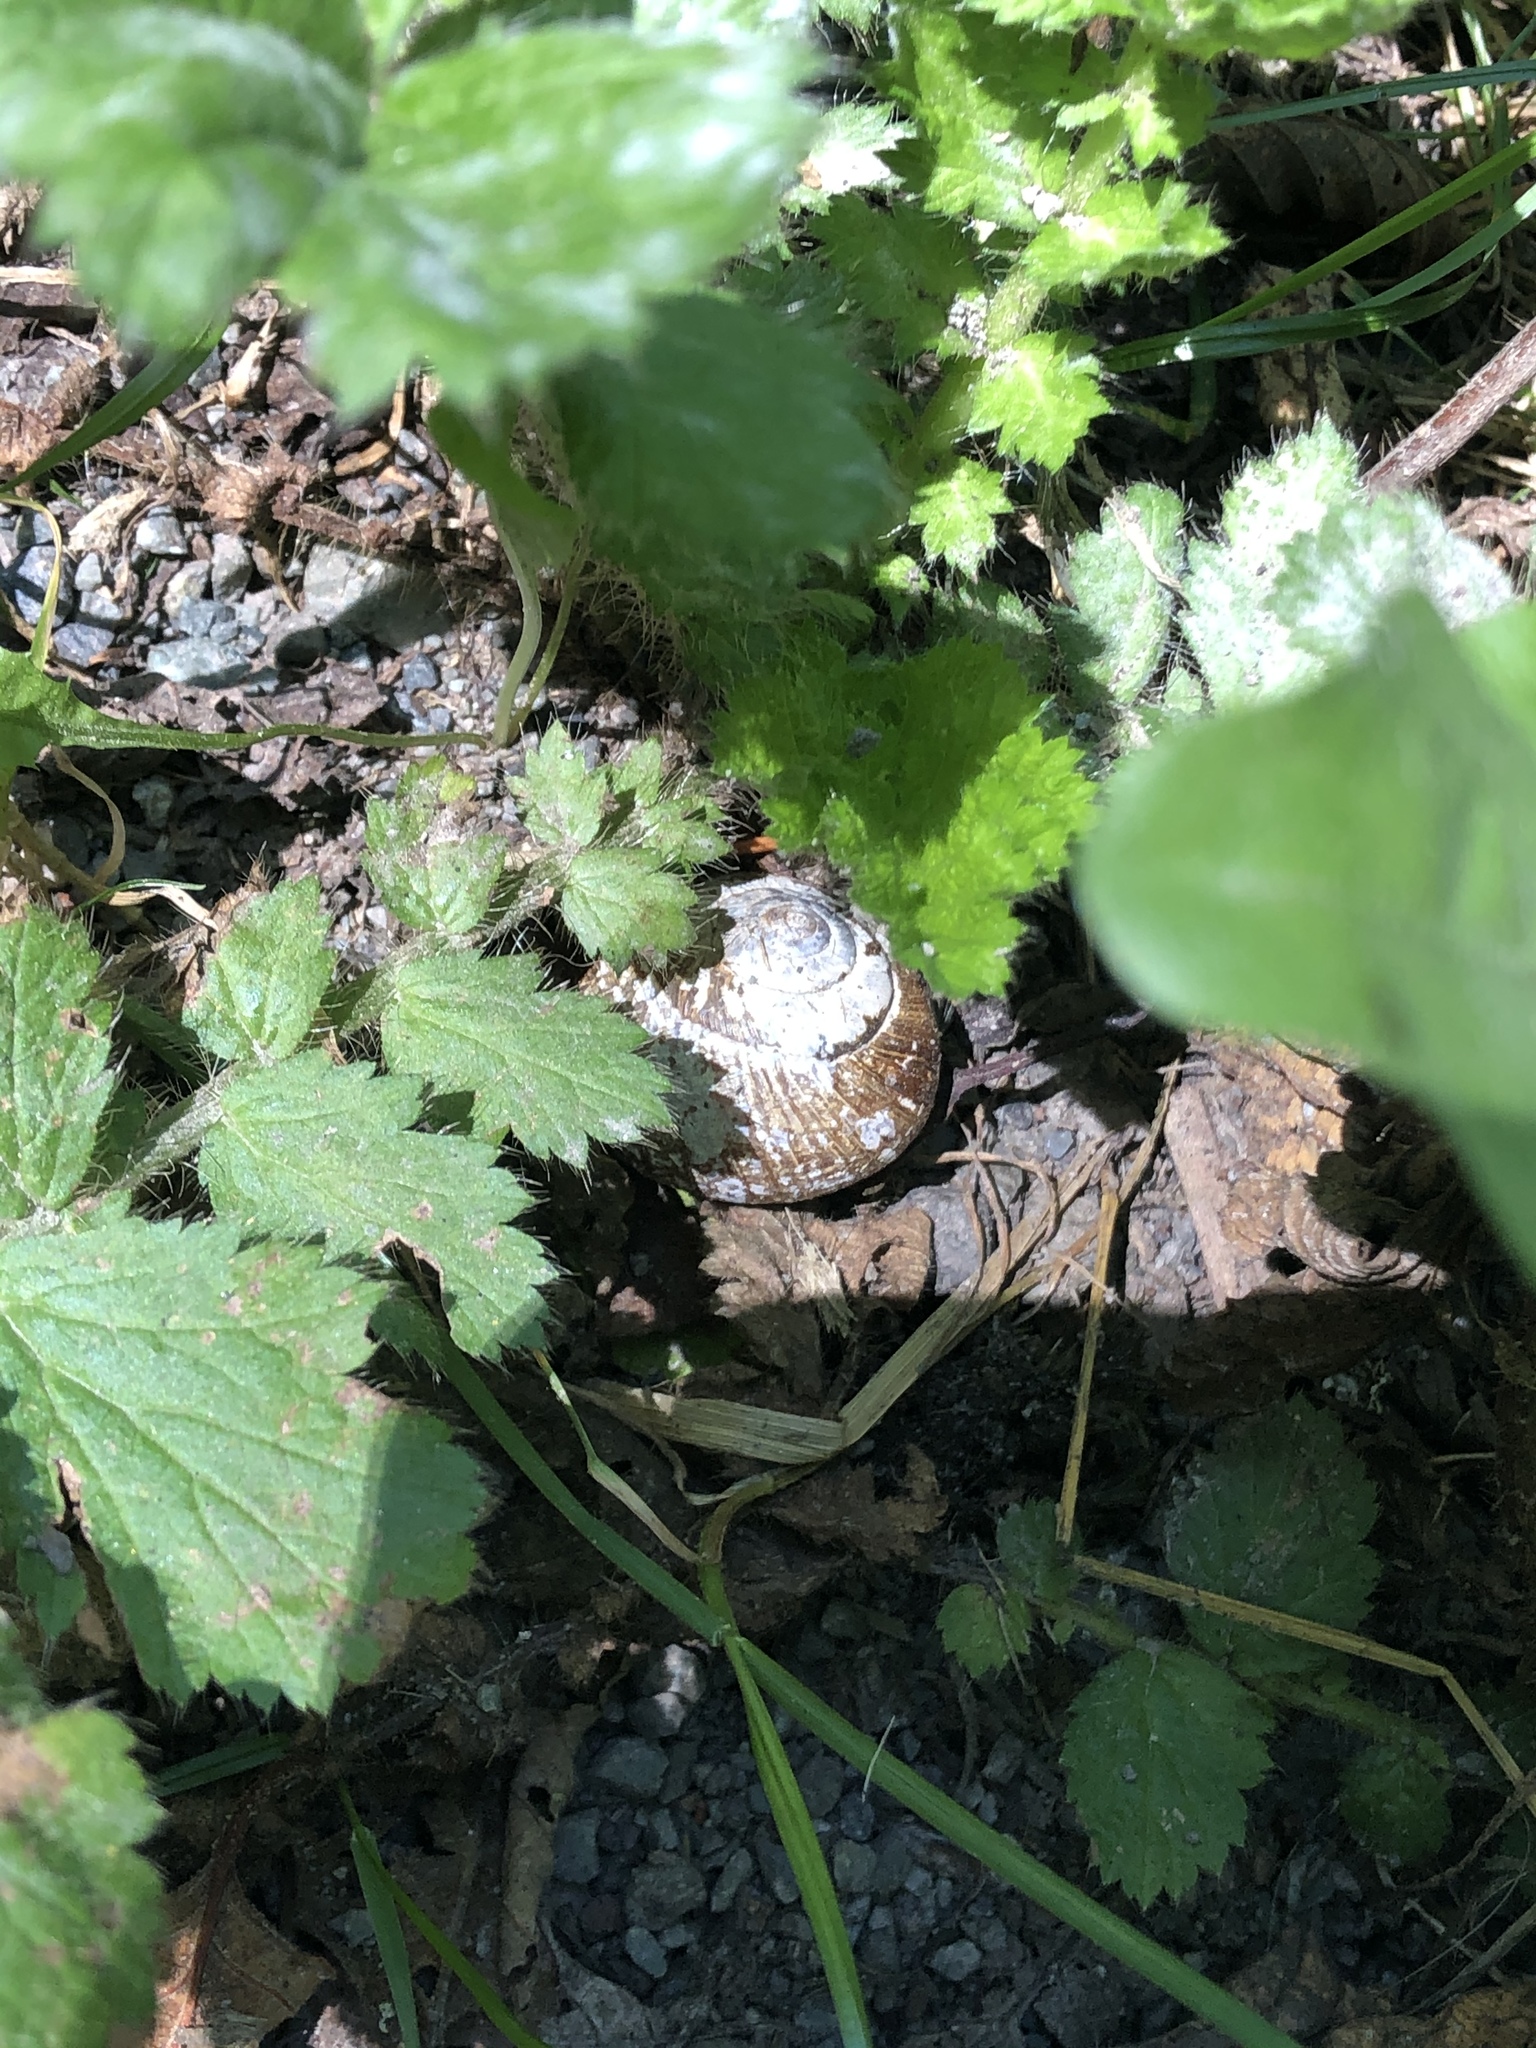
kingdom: Animalia
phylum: Mollusca
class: Gastropoda
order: Stylommatophora
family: Polygyridae
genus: Allogona
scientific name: Allogona townsendiana
